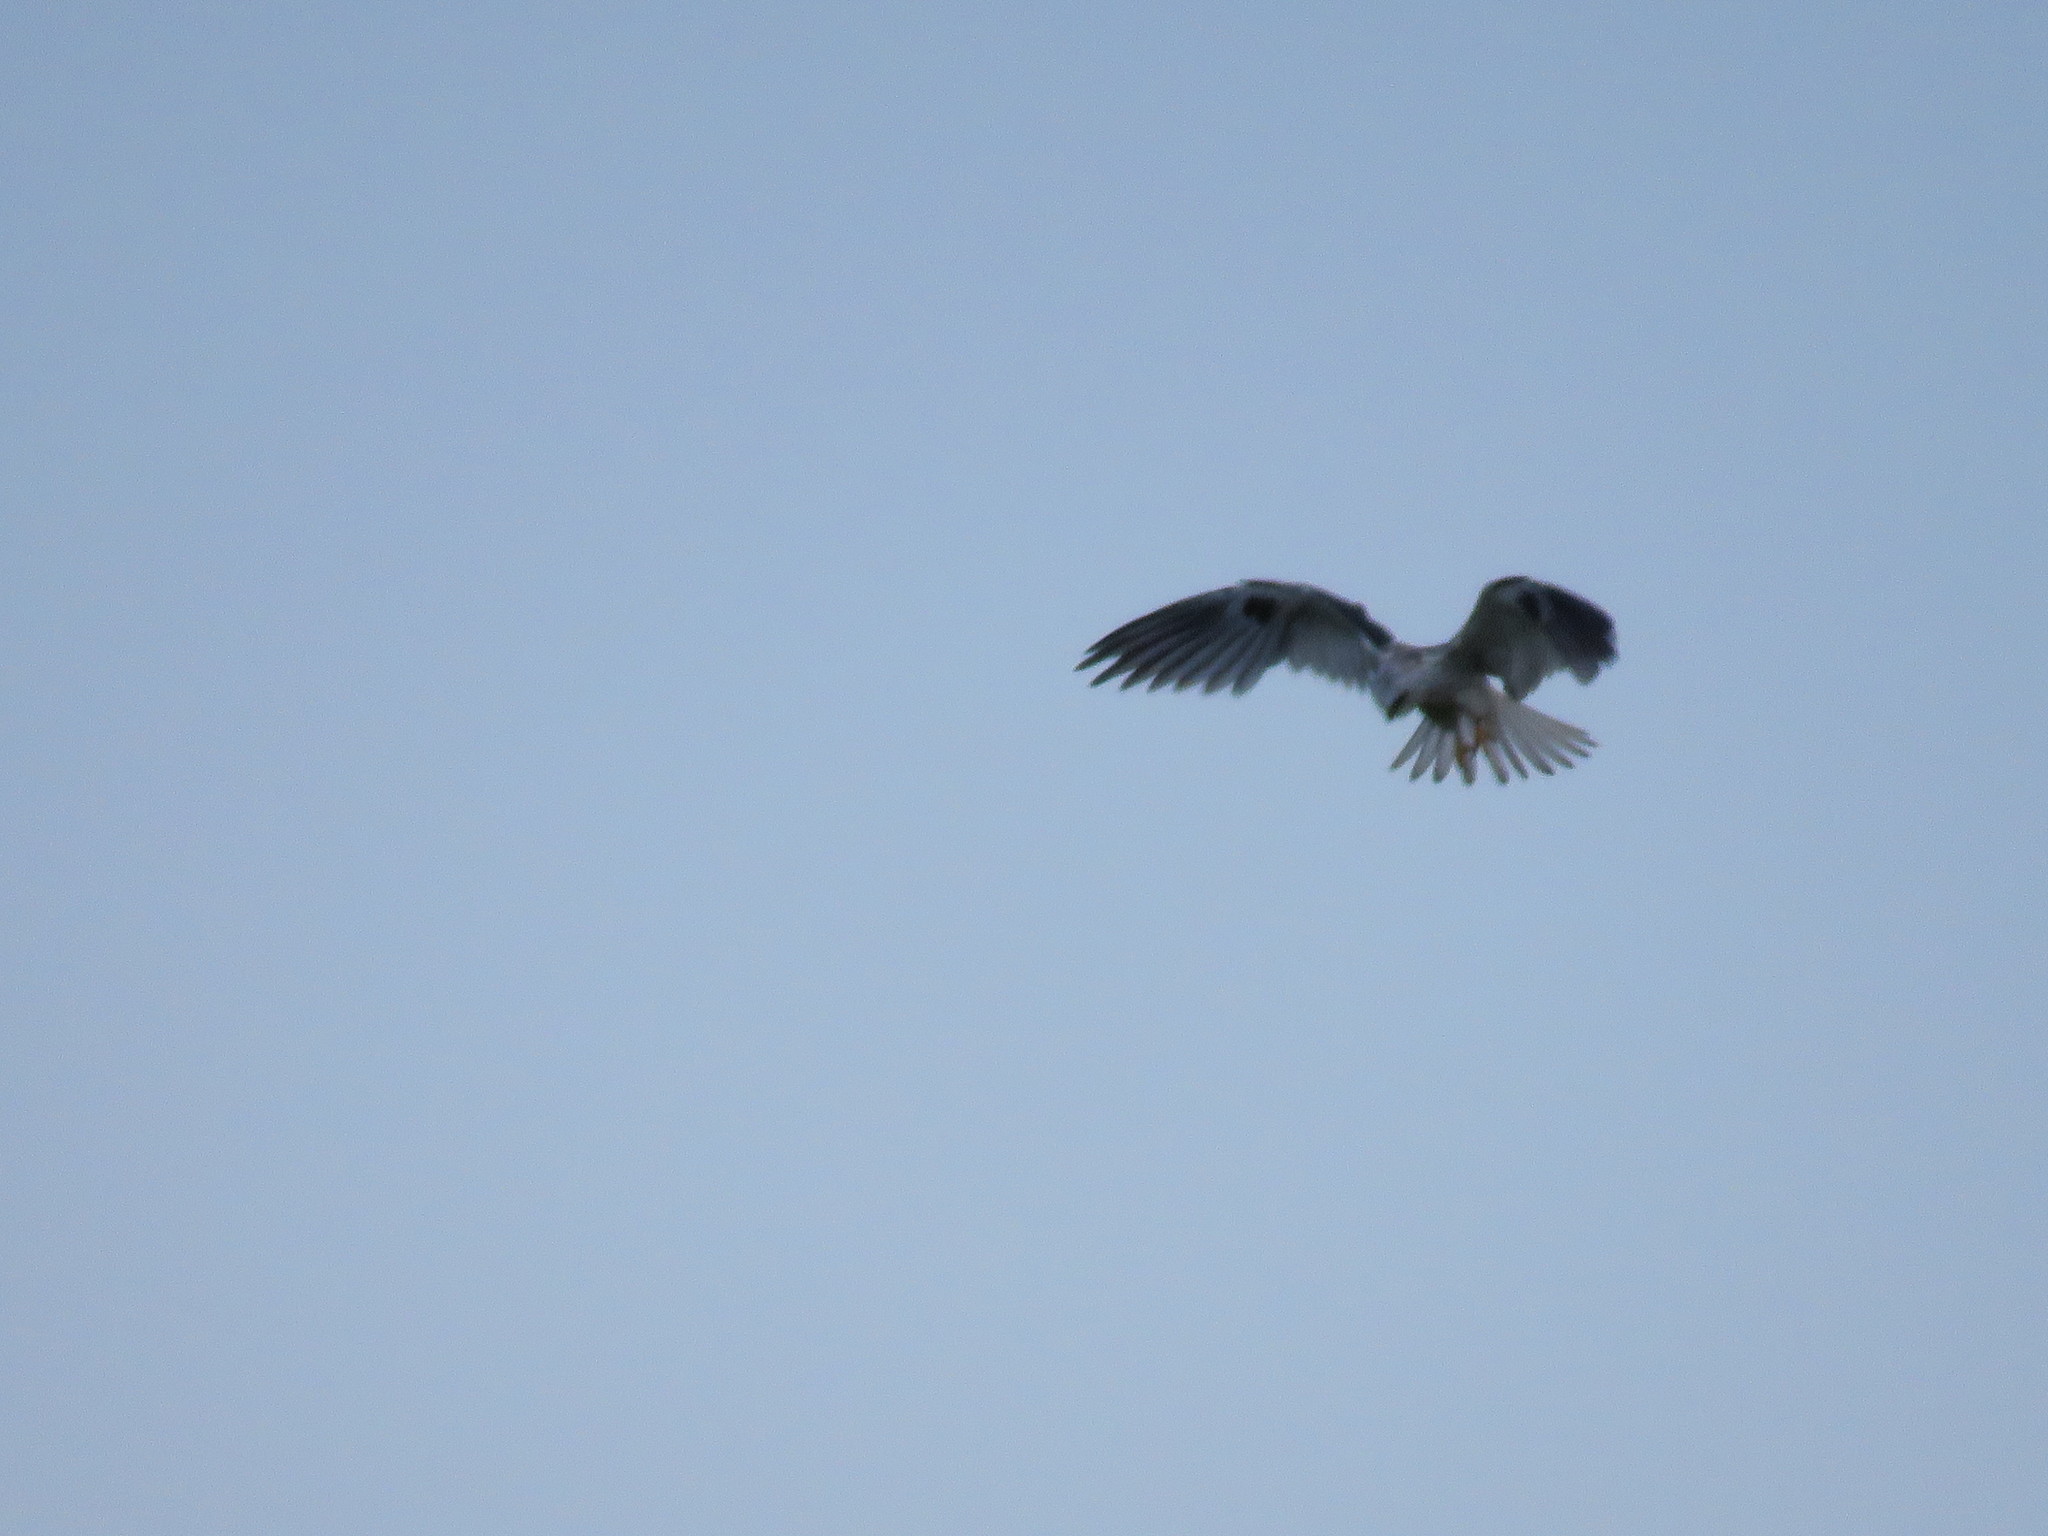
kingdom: Animalia
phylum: Chordata
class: Aves
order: Accipitriformes
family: Accipitridae
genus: Elanus
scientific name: Elanus leucurus
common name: White-tailed kite
